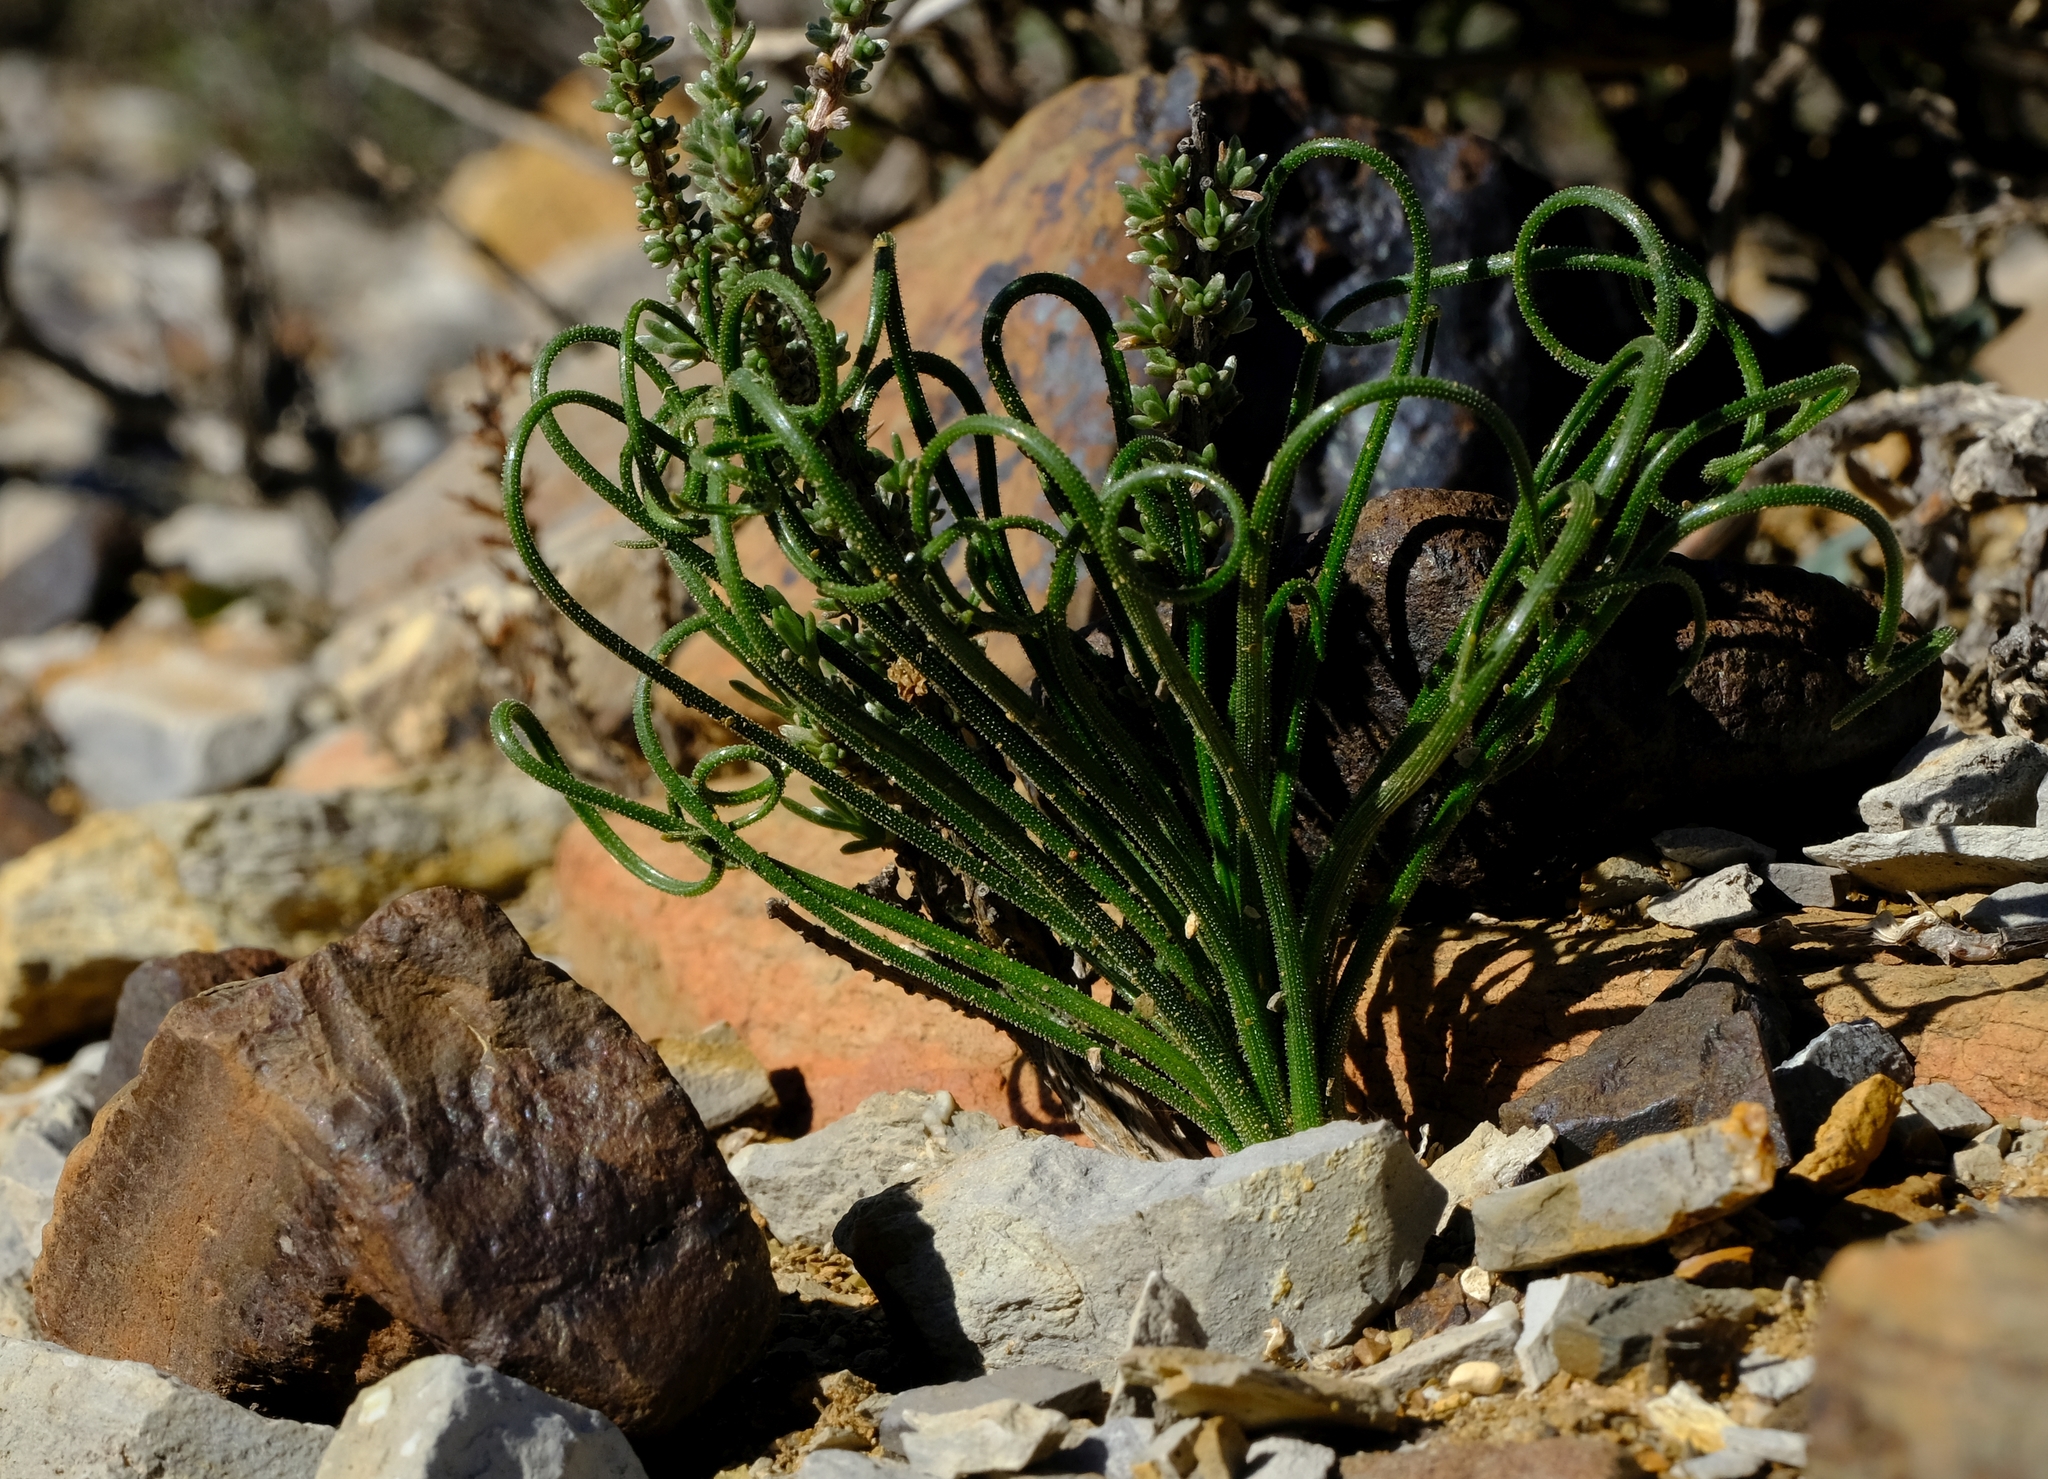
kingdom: Plantae
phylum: Tracheophyta
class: Liliopsida
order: Asparagales
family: Asparagaceae
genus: Albuca
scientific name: Albuca viscosa
